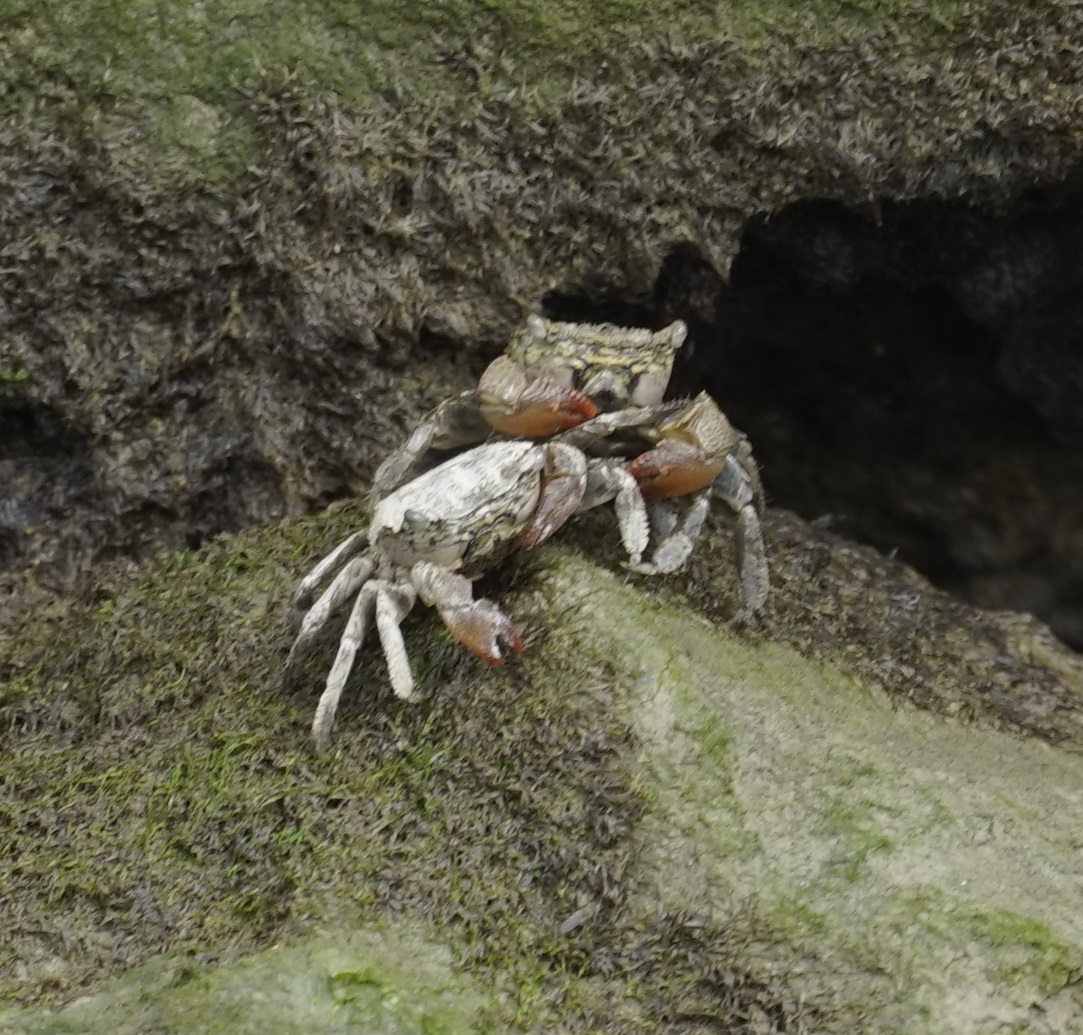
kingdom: Animalia
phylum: Arthropoda
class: Malacostraca
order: Decapoda
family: Sesarmidae
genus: Parasesarma
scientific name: Parasesarma bidens
